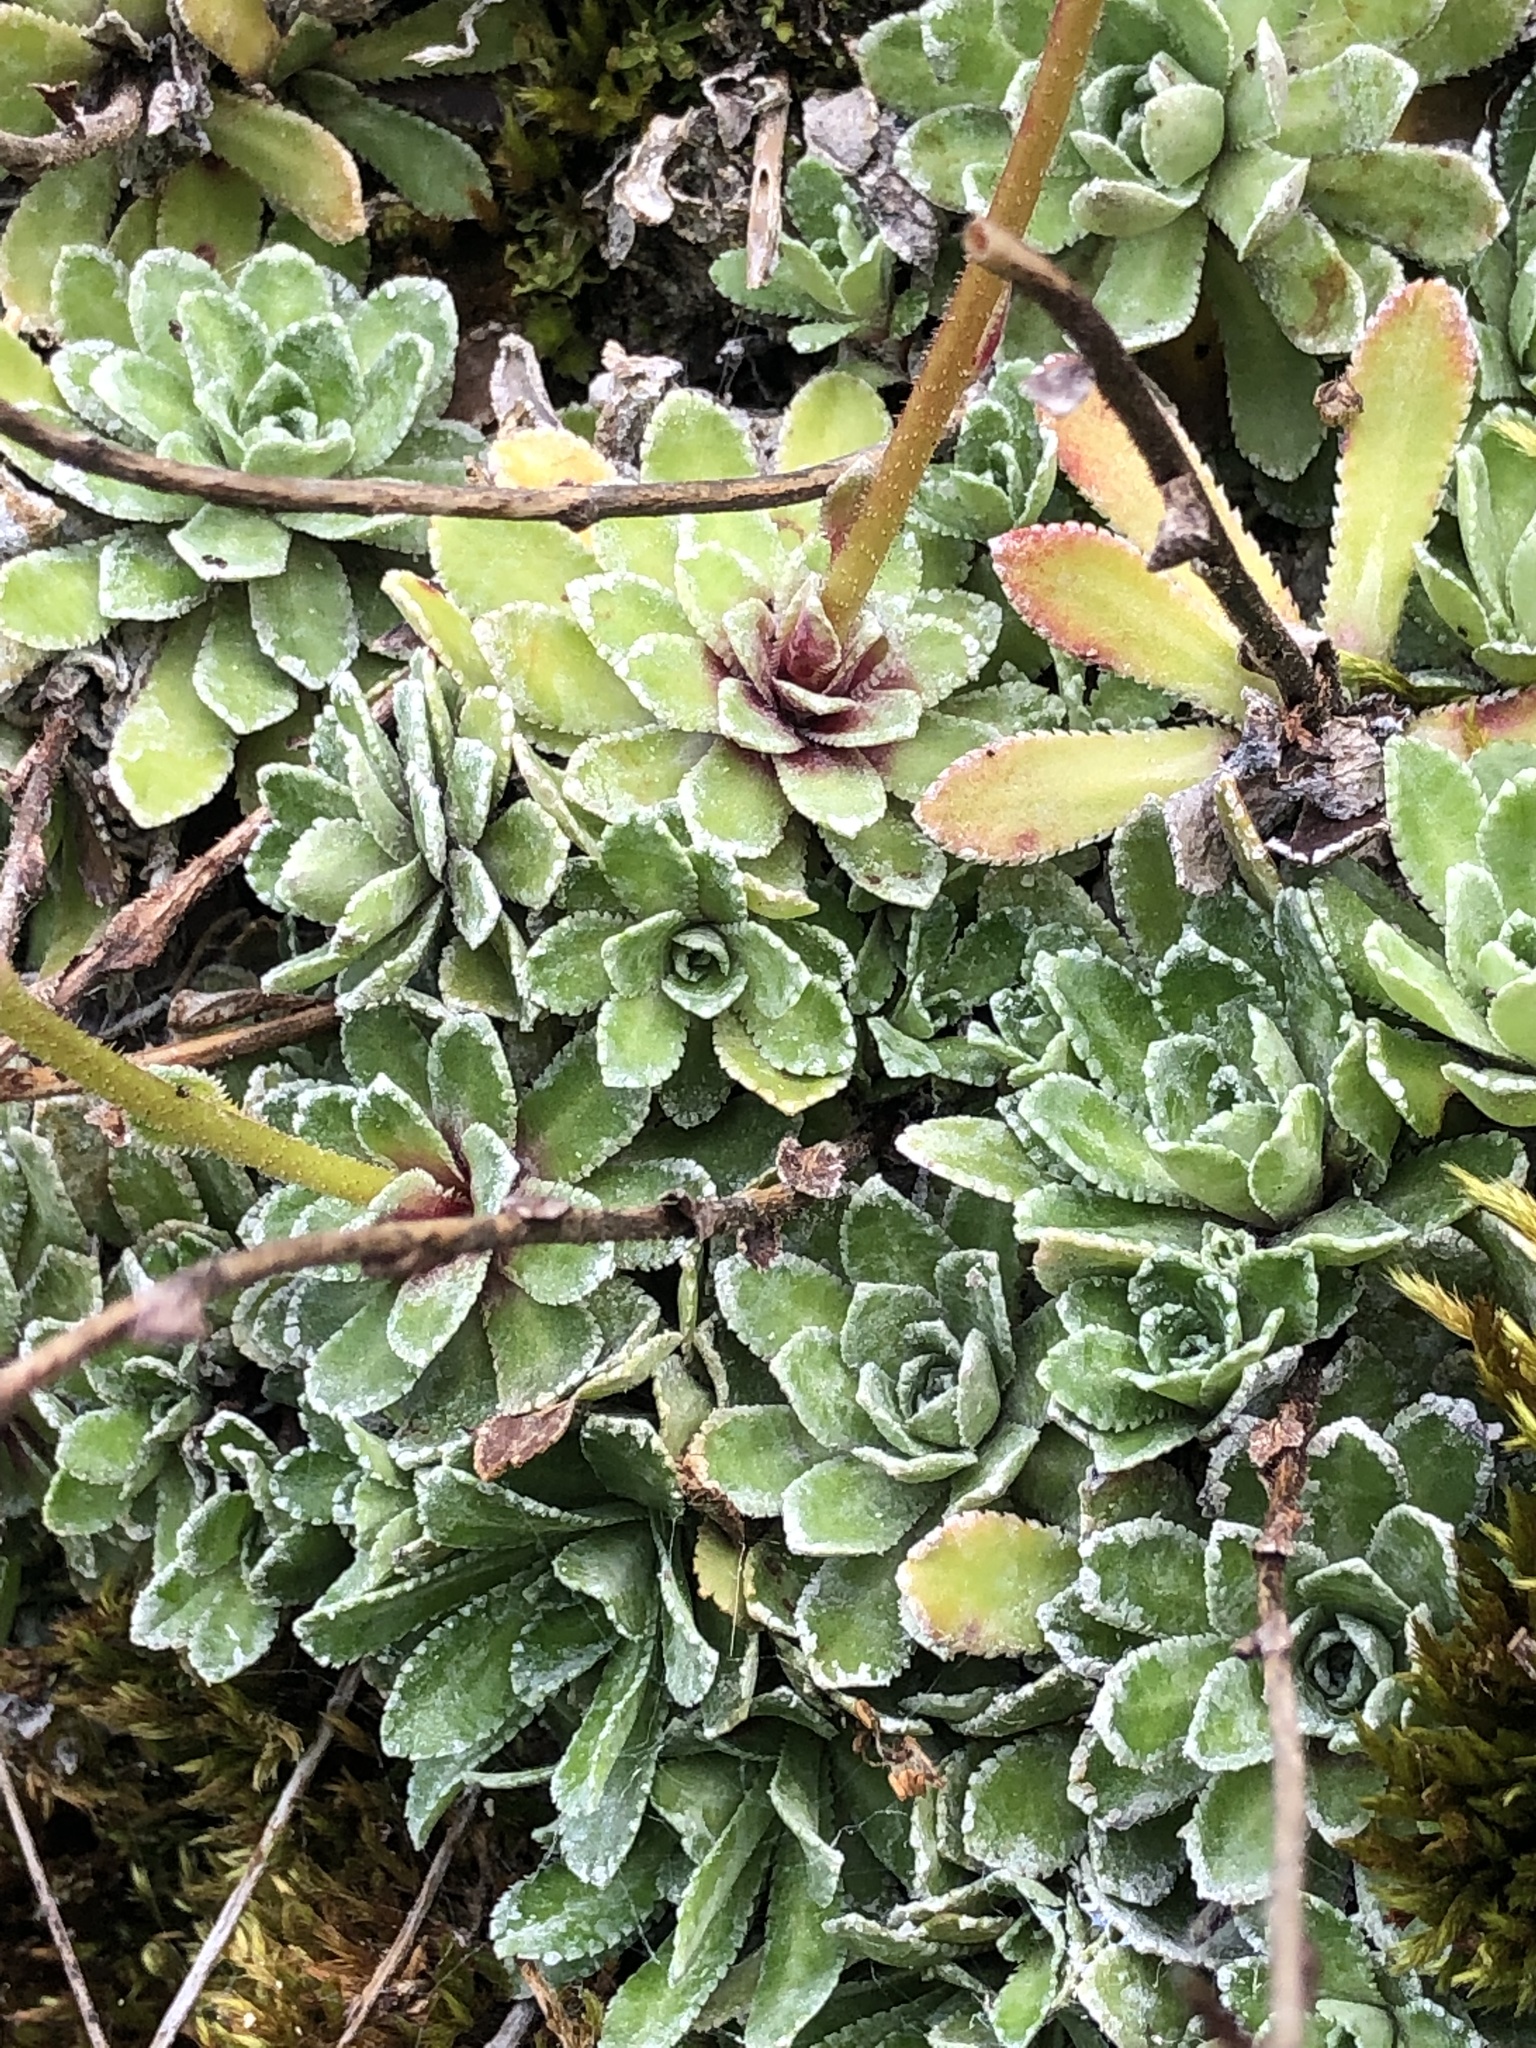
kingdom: Plantae
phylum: Tracheophyta
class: Magnoliopsida
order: Saxifragales
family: Saxifragaceae
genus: Saxifraga
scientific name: Saxifraga paniculata
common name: Livelong saxifrage
